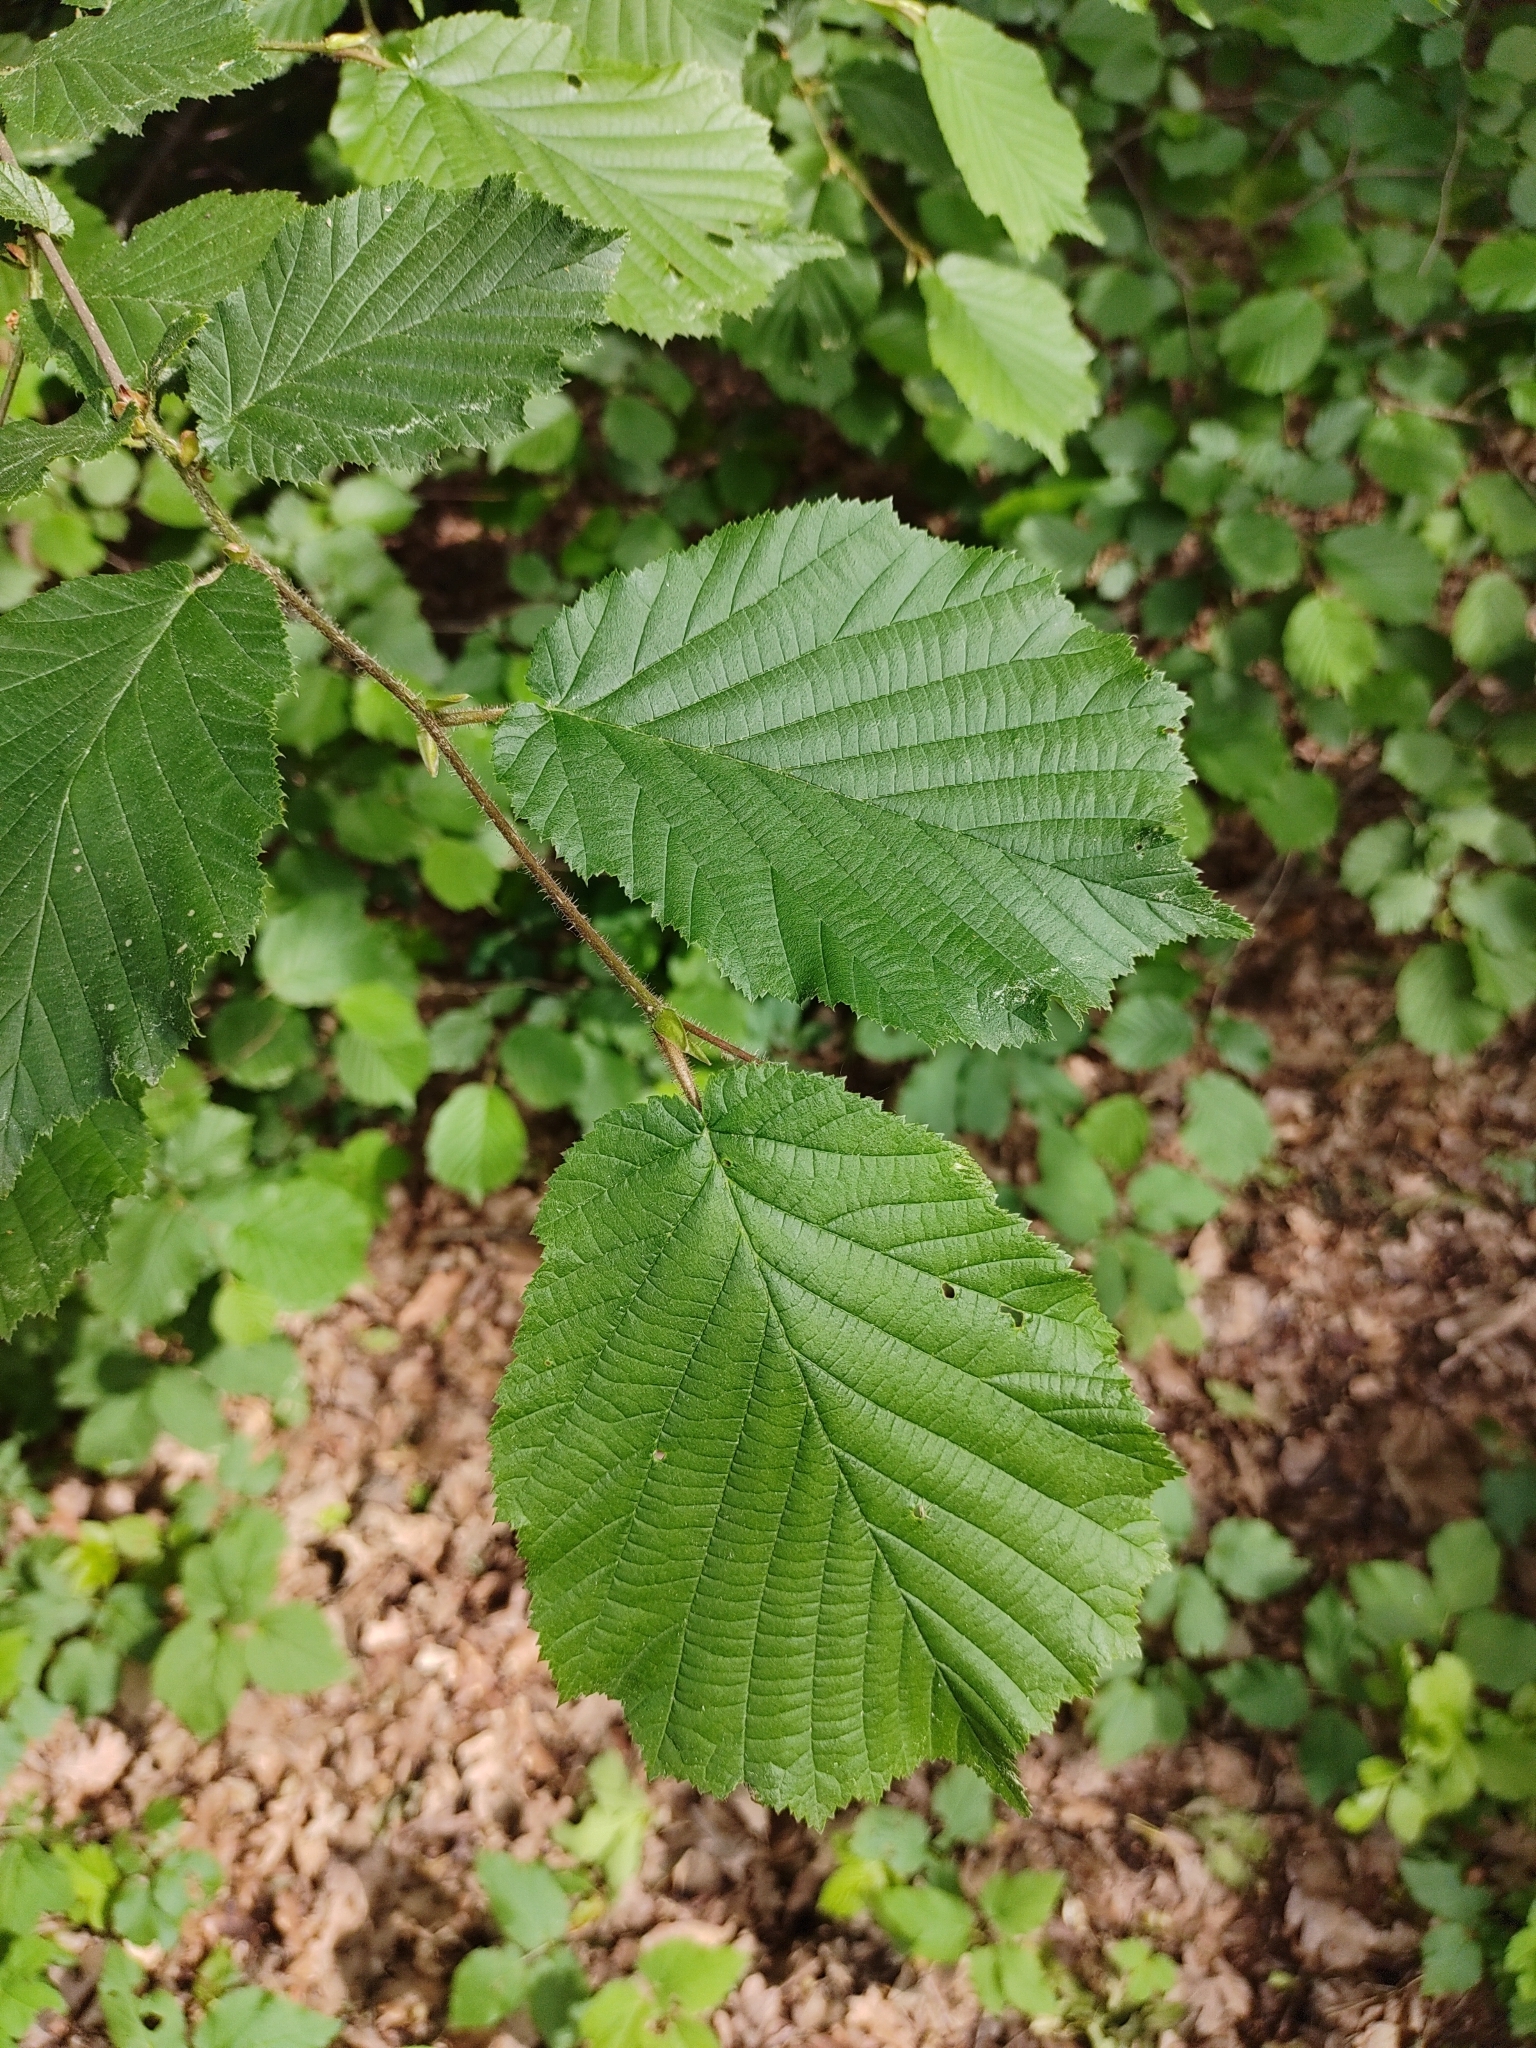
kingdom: Plantae
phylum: Tracheophyta
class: Magnoliopsida
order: Fagales
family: Betulaceae
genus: Corylus
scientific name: Corylus avellana
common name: European hazel
